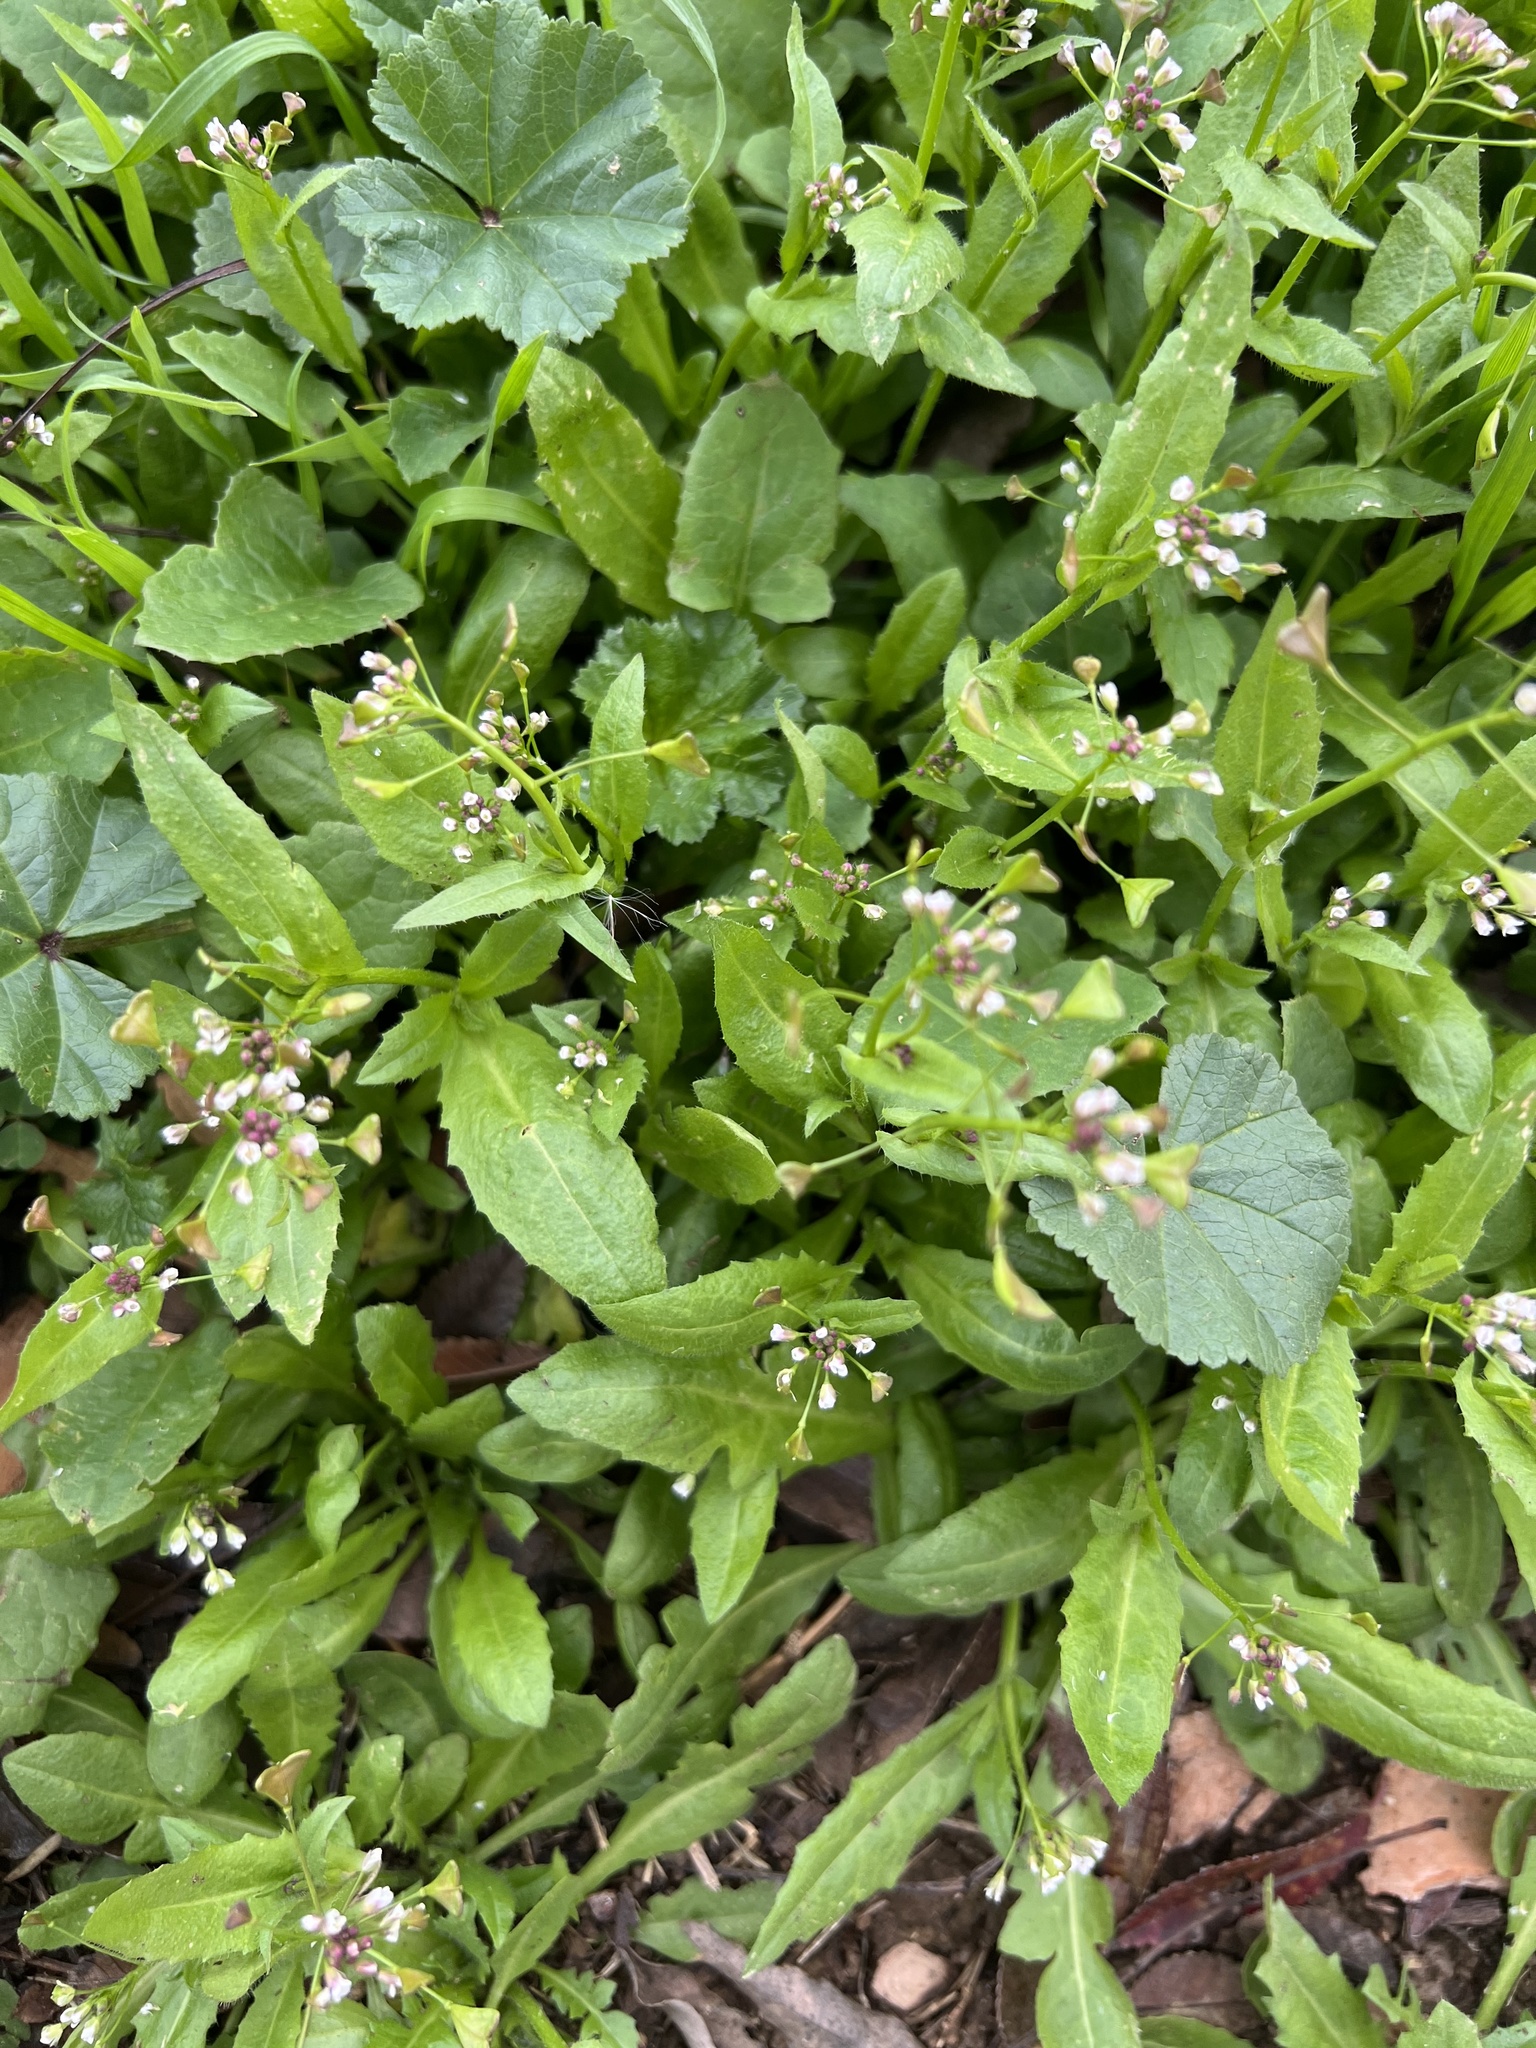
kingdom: Plantae
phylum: Tracheophyta
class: Magnoliopsida
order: Brassicales
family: Brassicaceae
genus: Capsella
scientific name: Capsella bursa-pastoris
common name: Shepherd's purse
